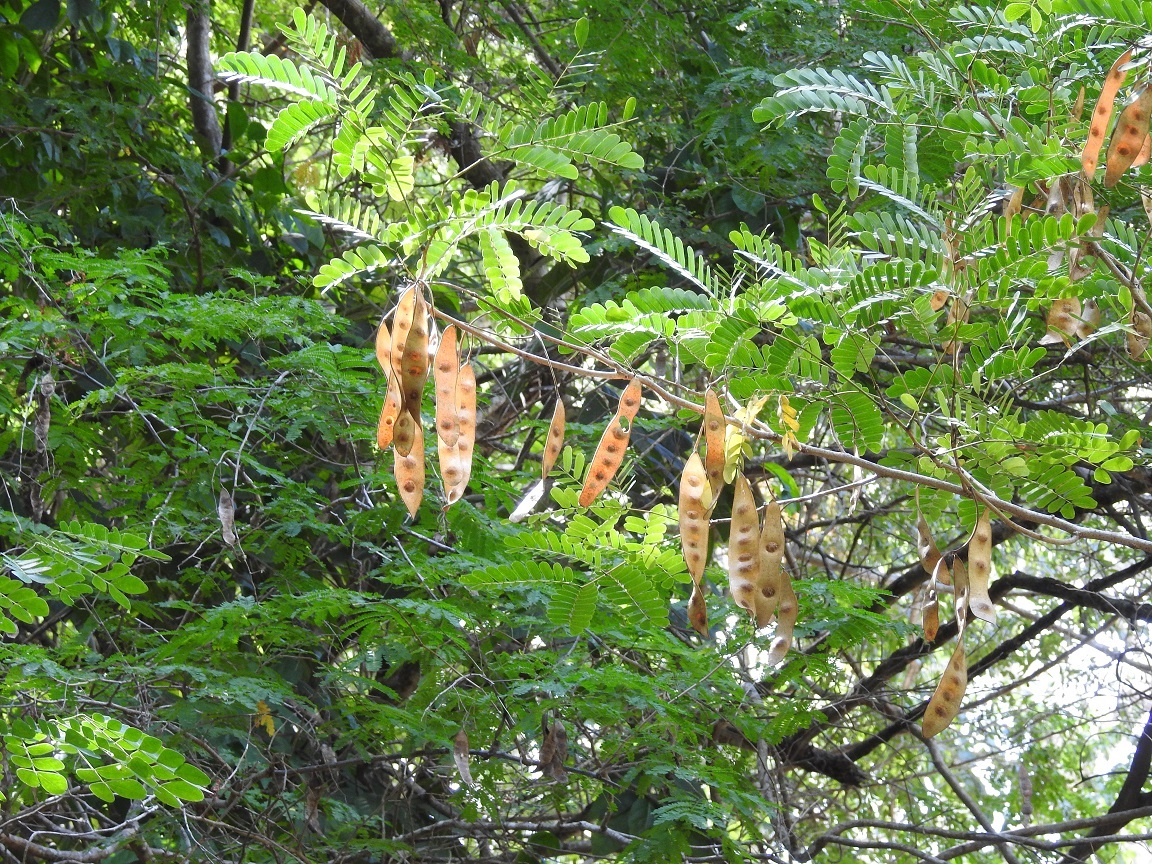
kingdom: Plantae
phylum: Tracheophyta
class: Magnoliopsida
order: Fabales
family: Fabaceae
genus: Albizia
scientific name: Albizia lebbeck
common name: Woman's tongue
